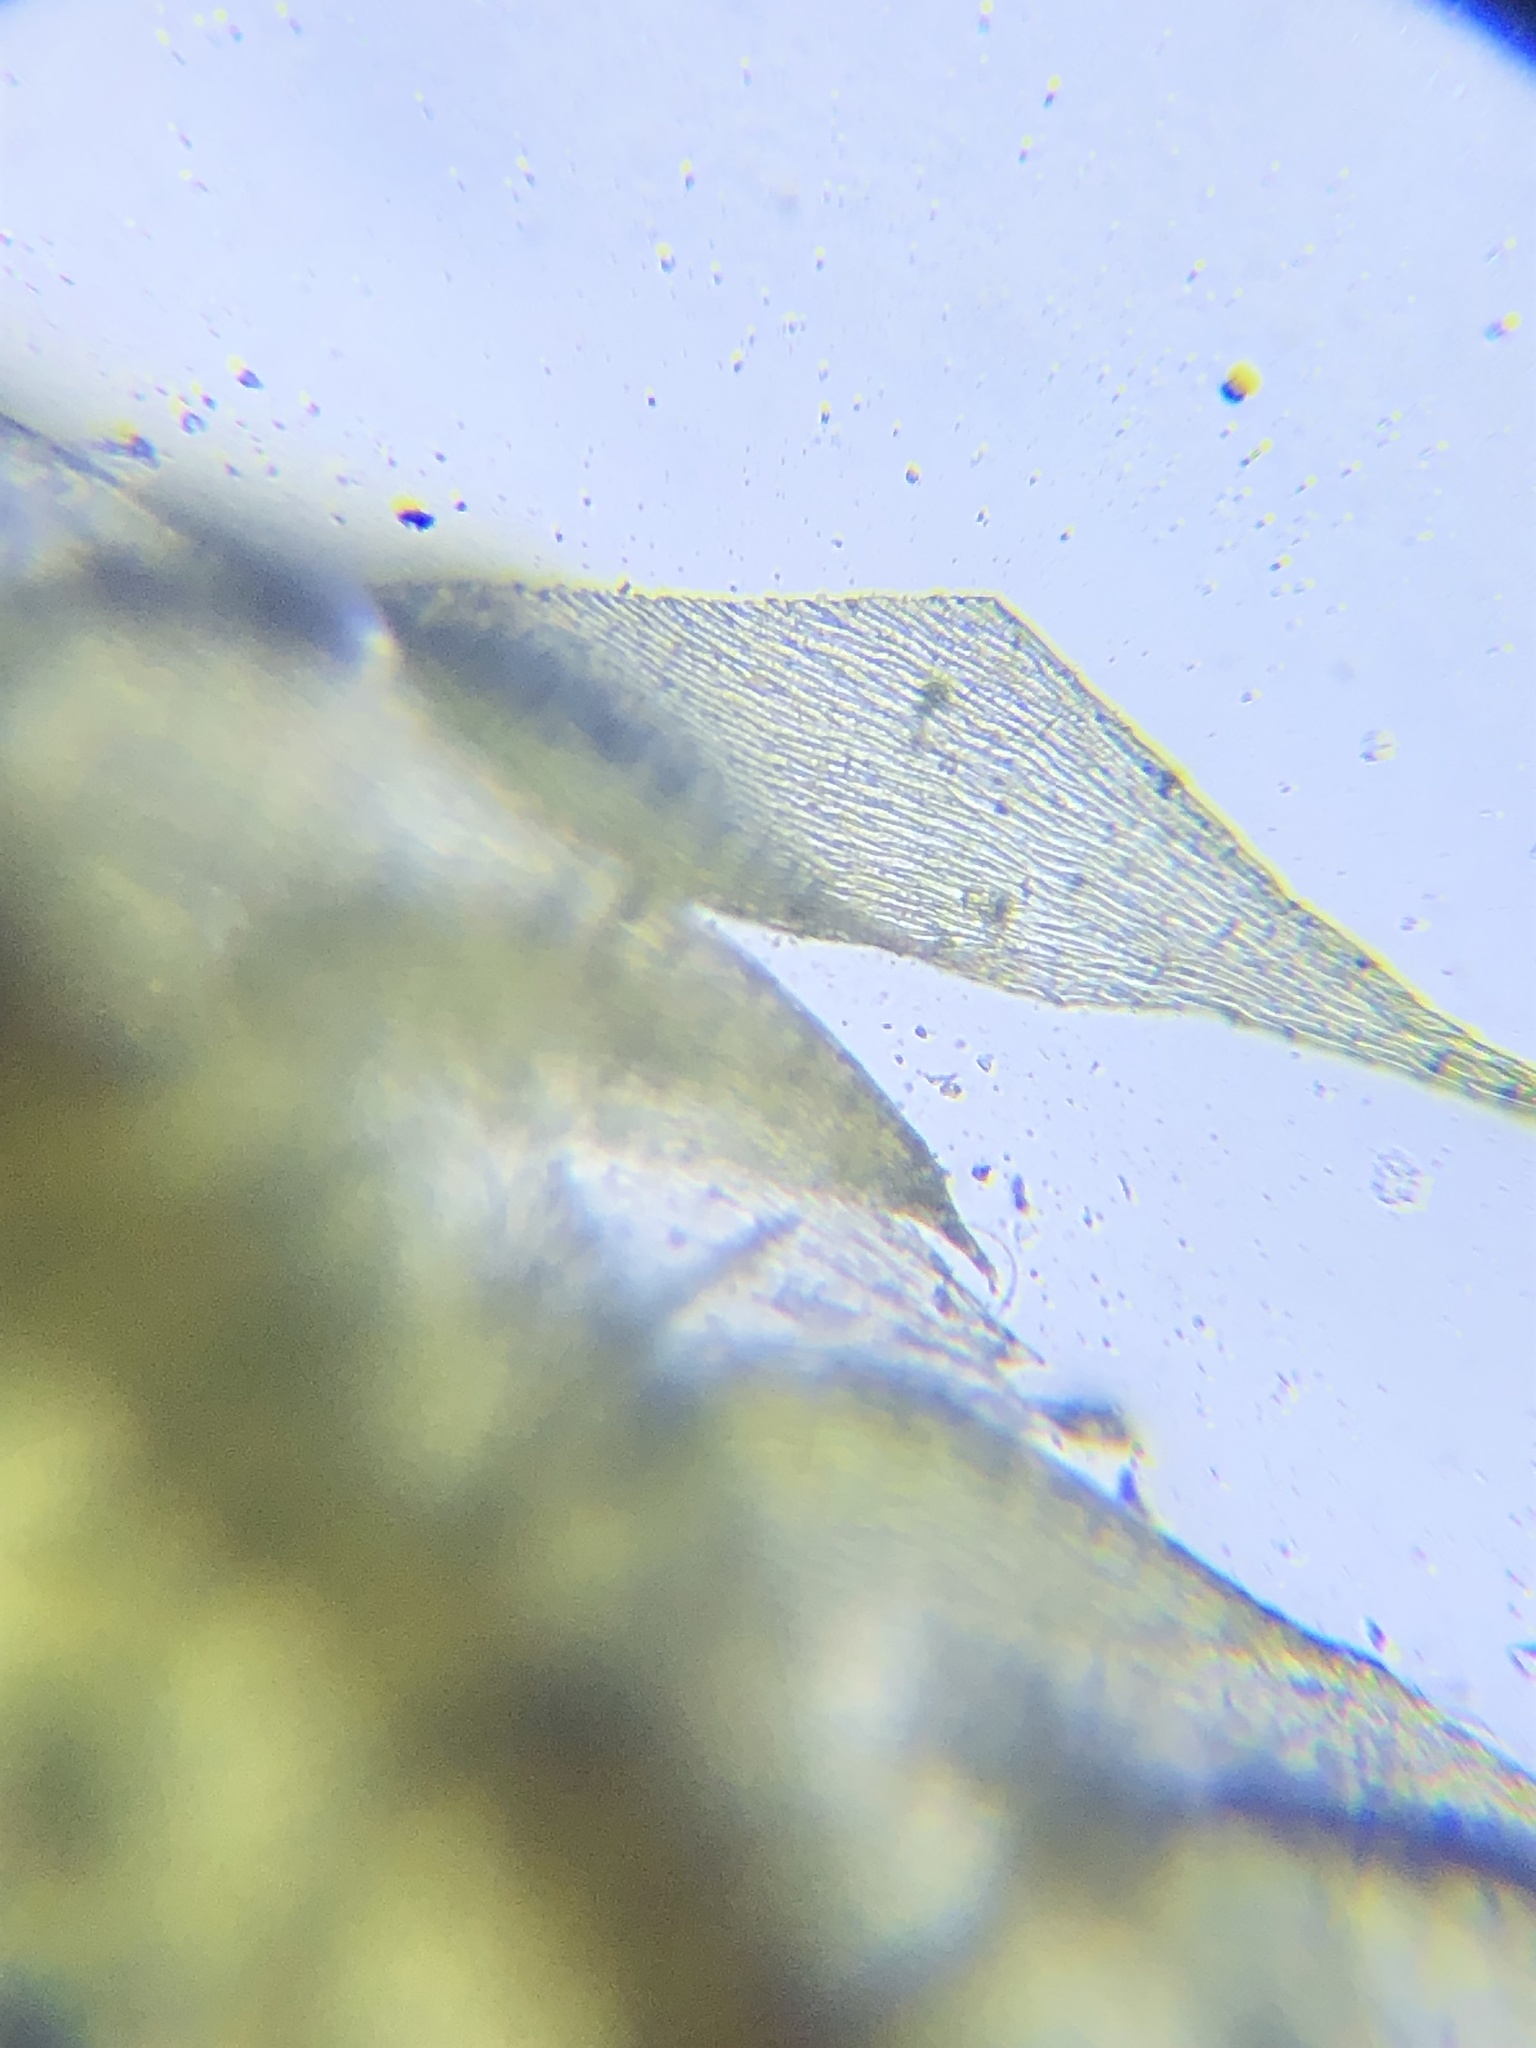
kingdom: Plantae
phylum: Bryophyta
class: Bryopsida
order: Hypnales
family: Sematophyllaceae
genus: Sematophyllum
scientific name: Sematophyllum adnatum
